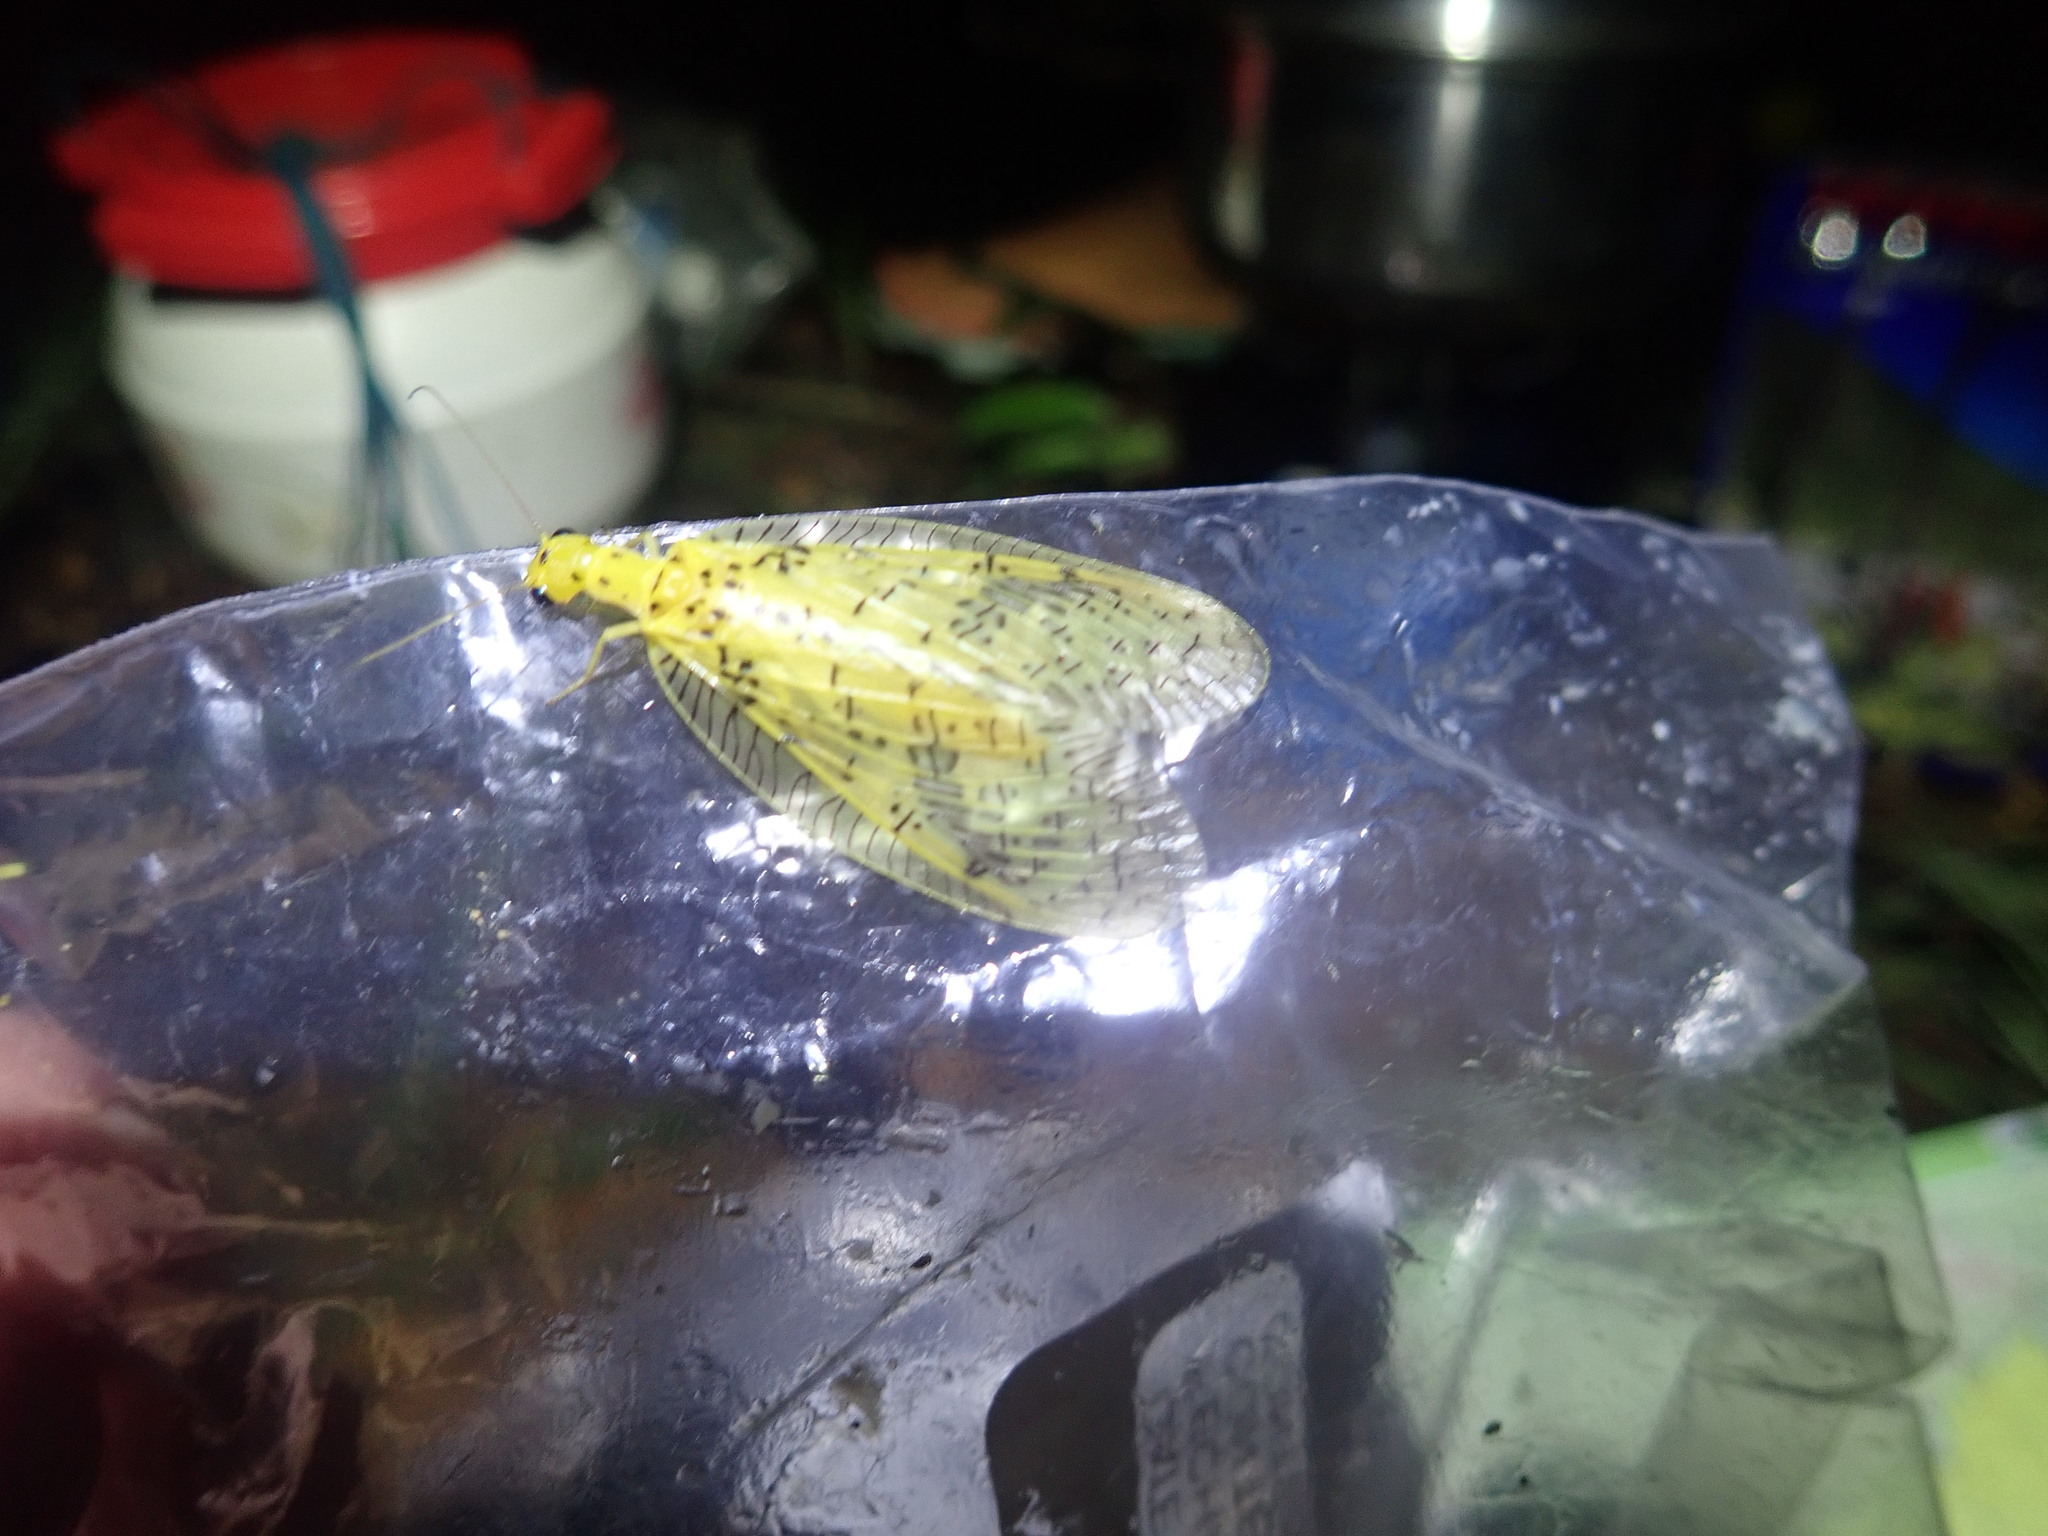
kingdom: Animalia
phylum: Arthropoda
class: Insecta
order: Megaloptera
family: Corydalidae
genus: Chloronia
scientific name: Chloronia hieroglyphica
